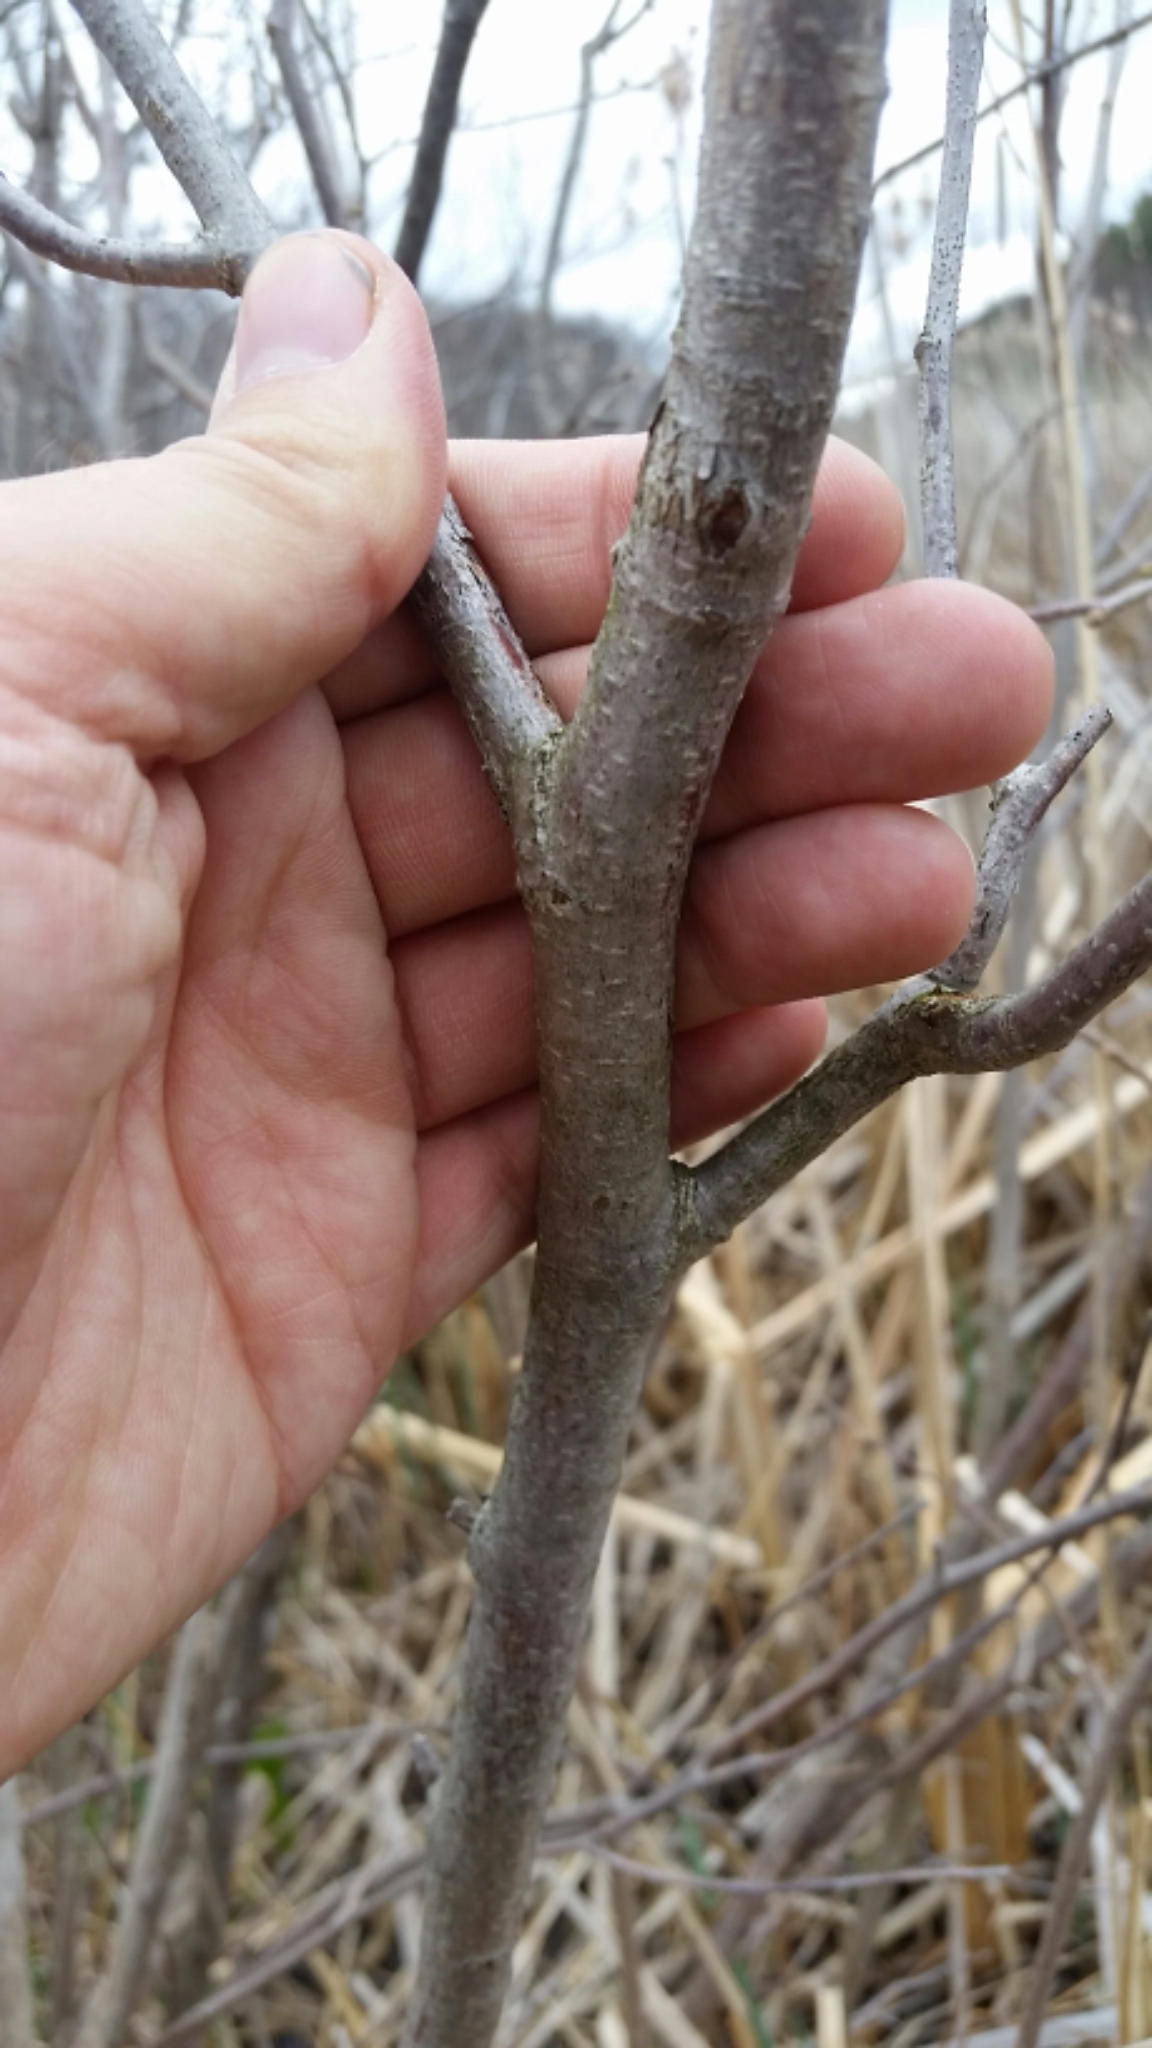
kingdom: Plantae
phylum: Tracheophyta
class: Magnoliopsida
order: Fagales
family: Betulaceae
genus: Corylus
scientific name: Corylus americana
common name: American hazel
